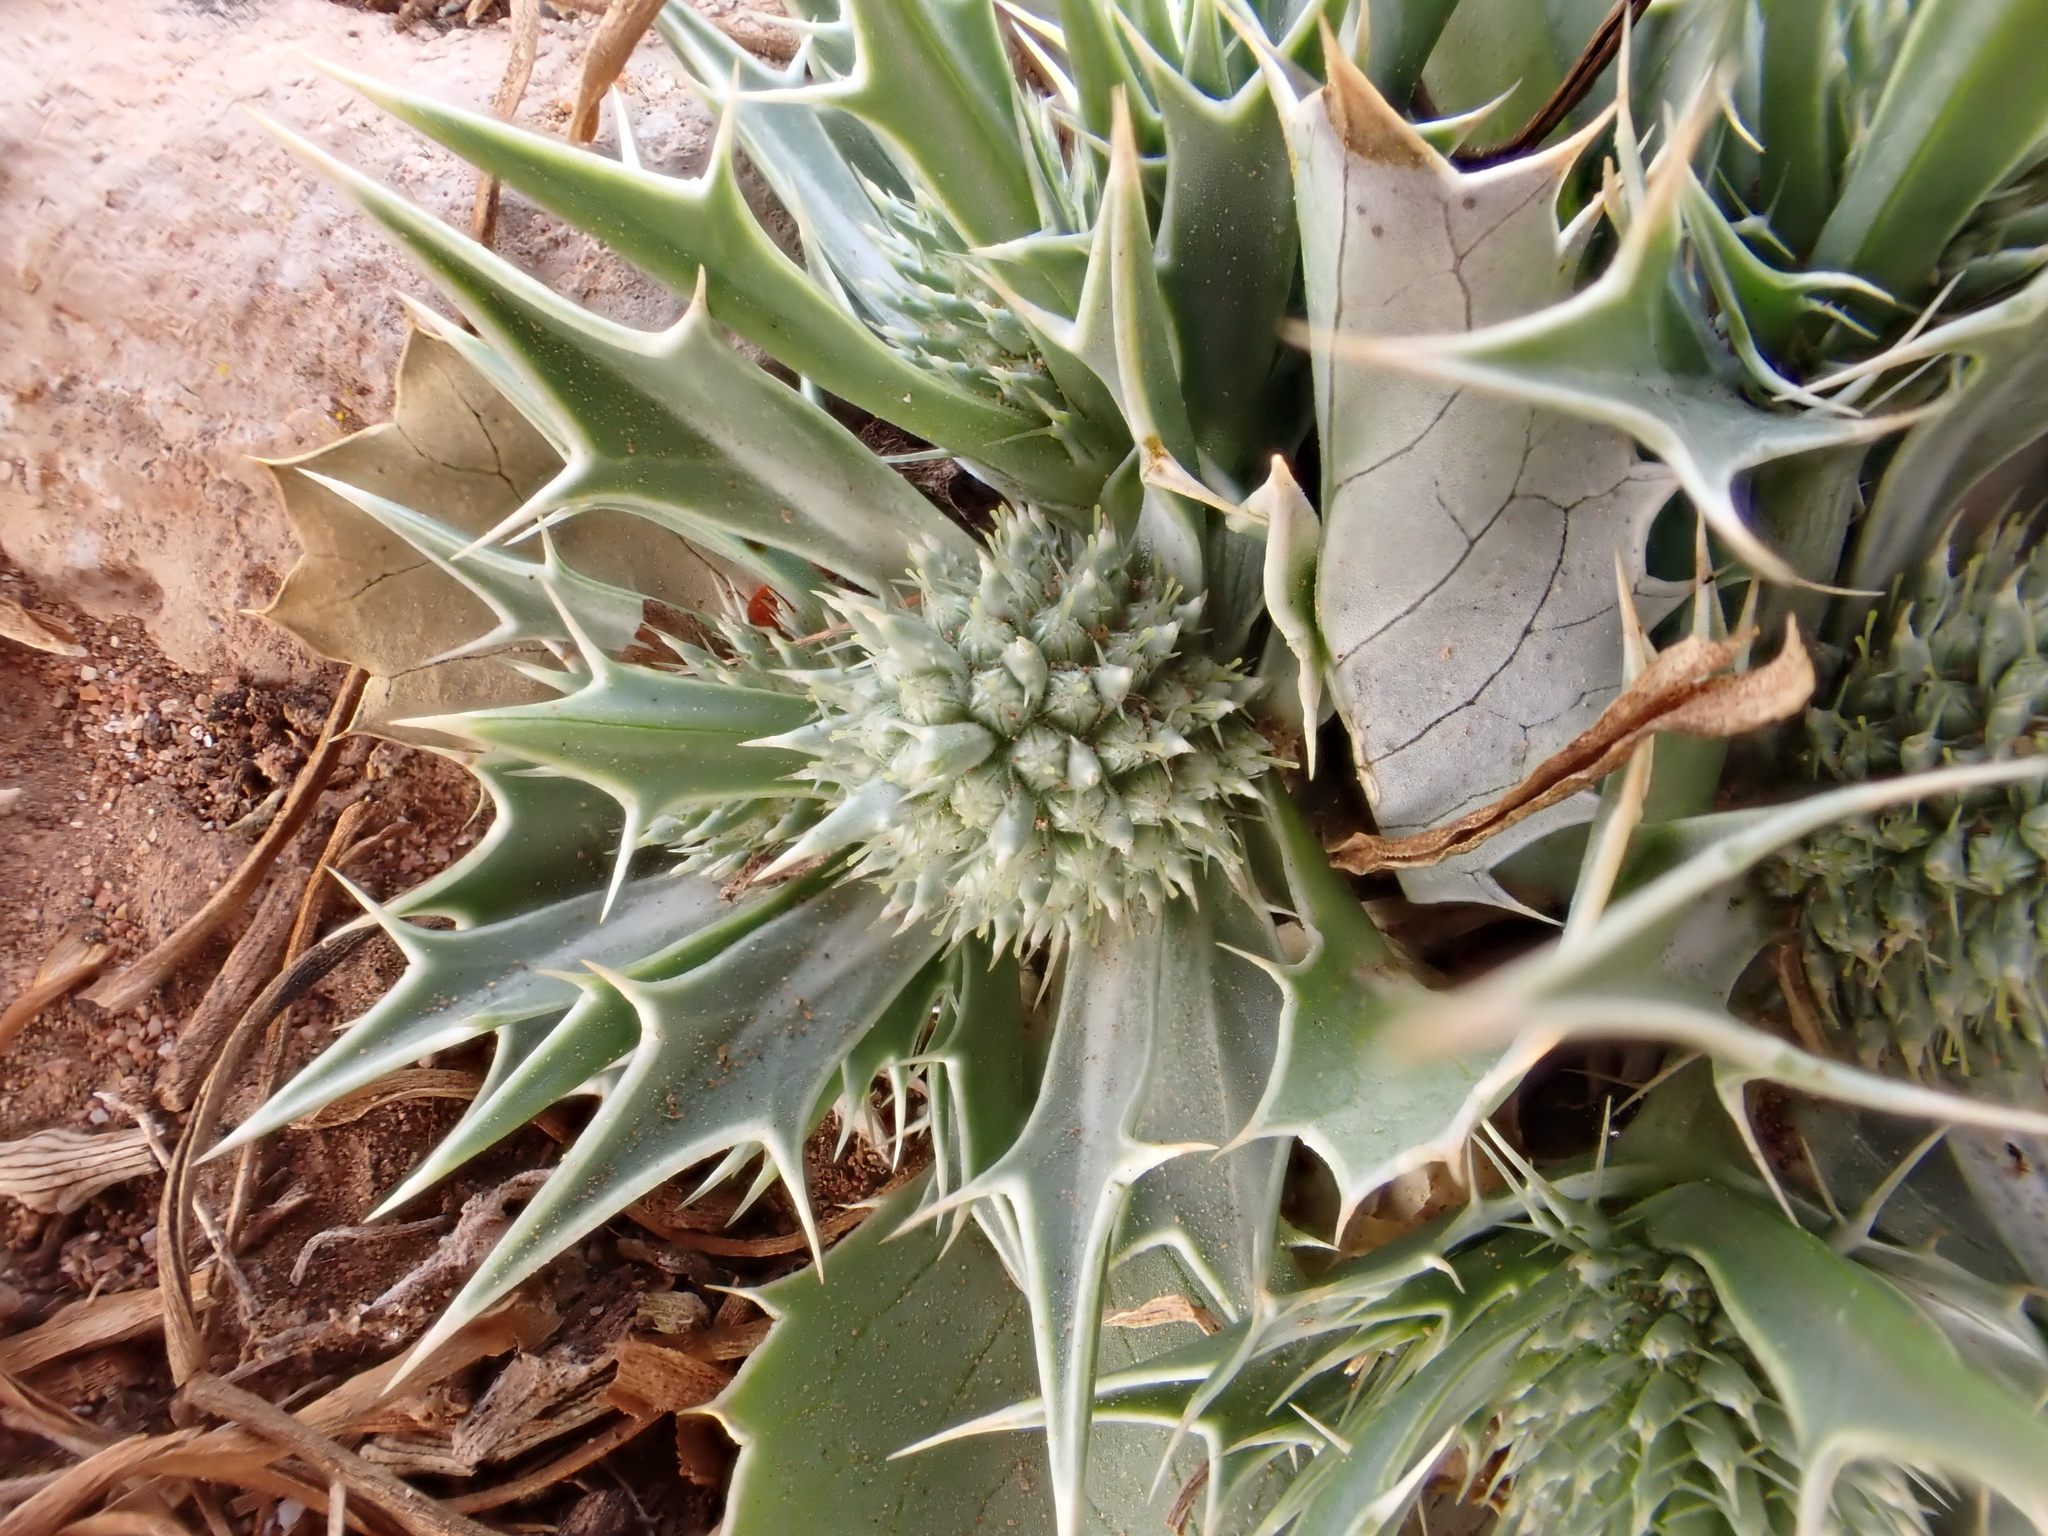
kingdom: Plantae
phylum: Tracheophyta
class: Magnoliopsida
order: Apiales
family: Apiaceae
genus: Eryngium
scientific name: Eryngium ilicifolium
